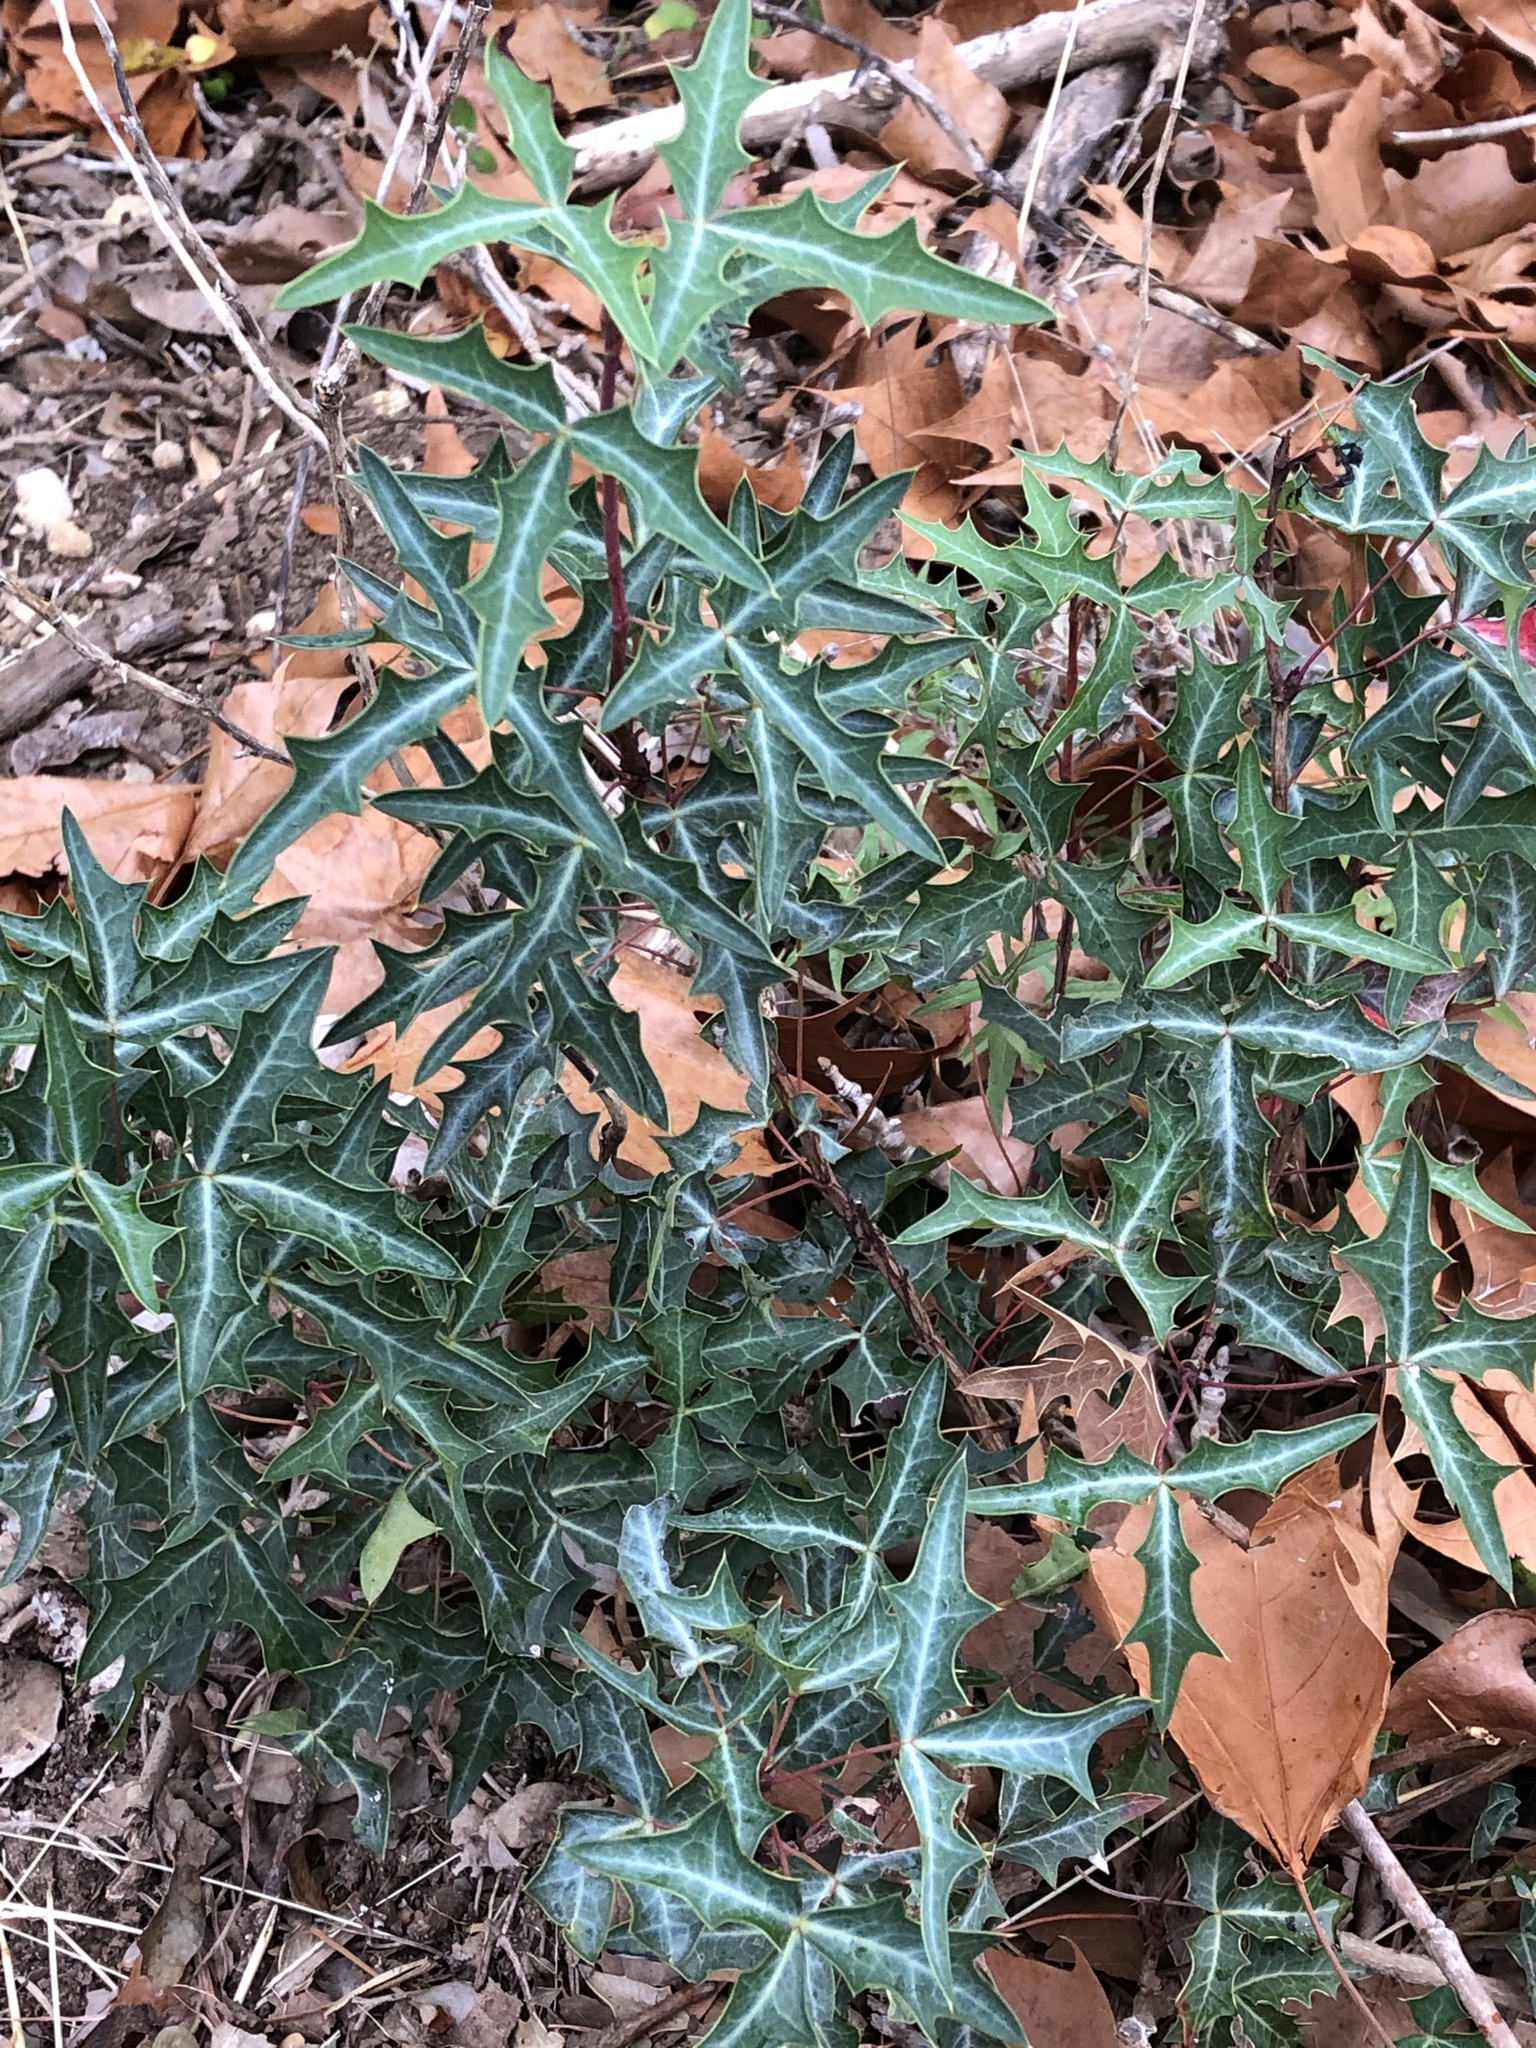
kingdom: Plantae
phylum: Tracheophyta
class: Magnoliopsida
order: Ranunculales
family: Berberidaceae
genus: Alloberberis
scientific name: Alloberberis trifoliolata
